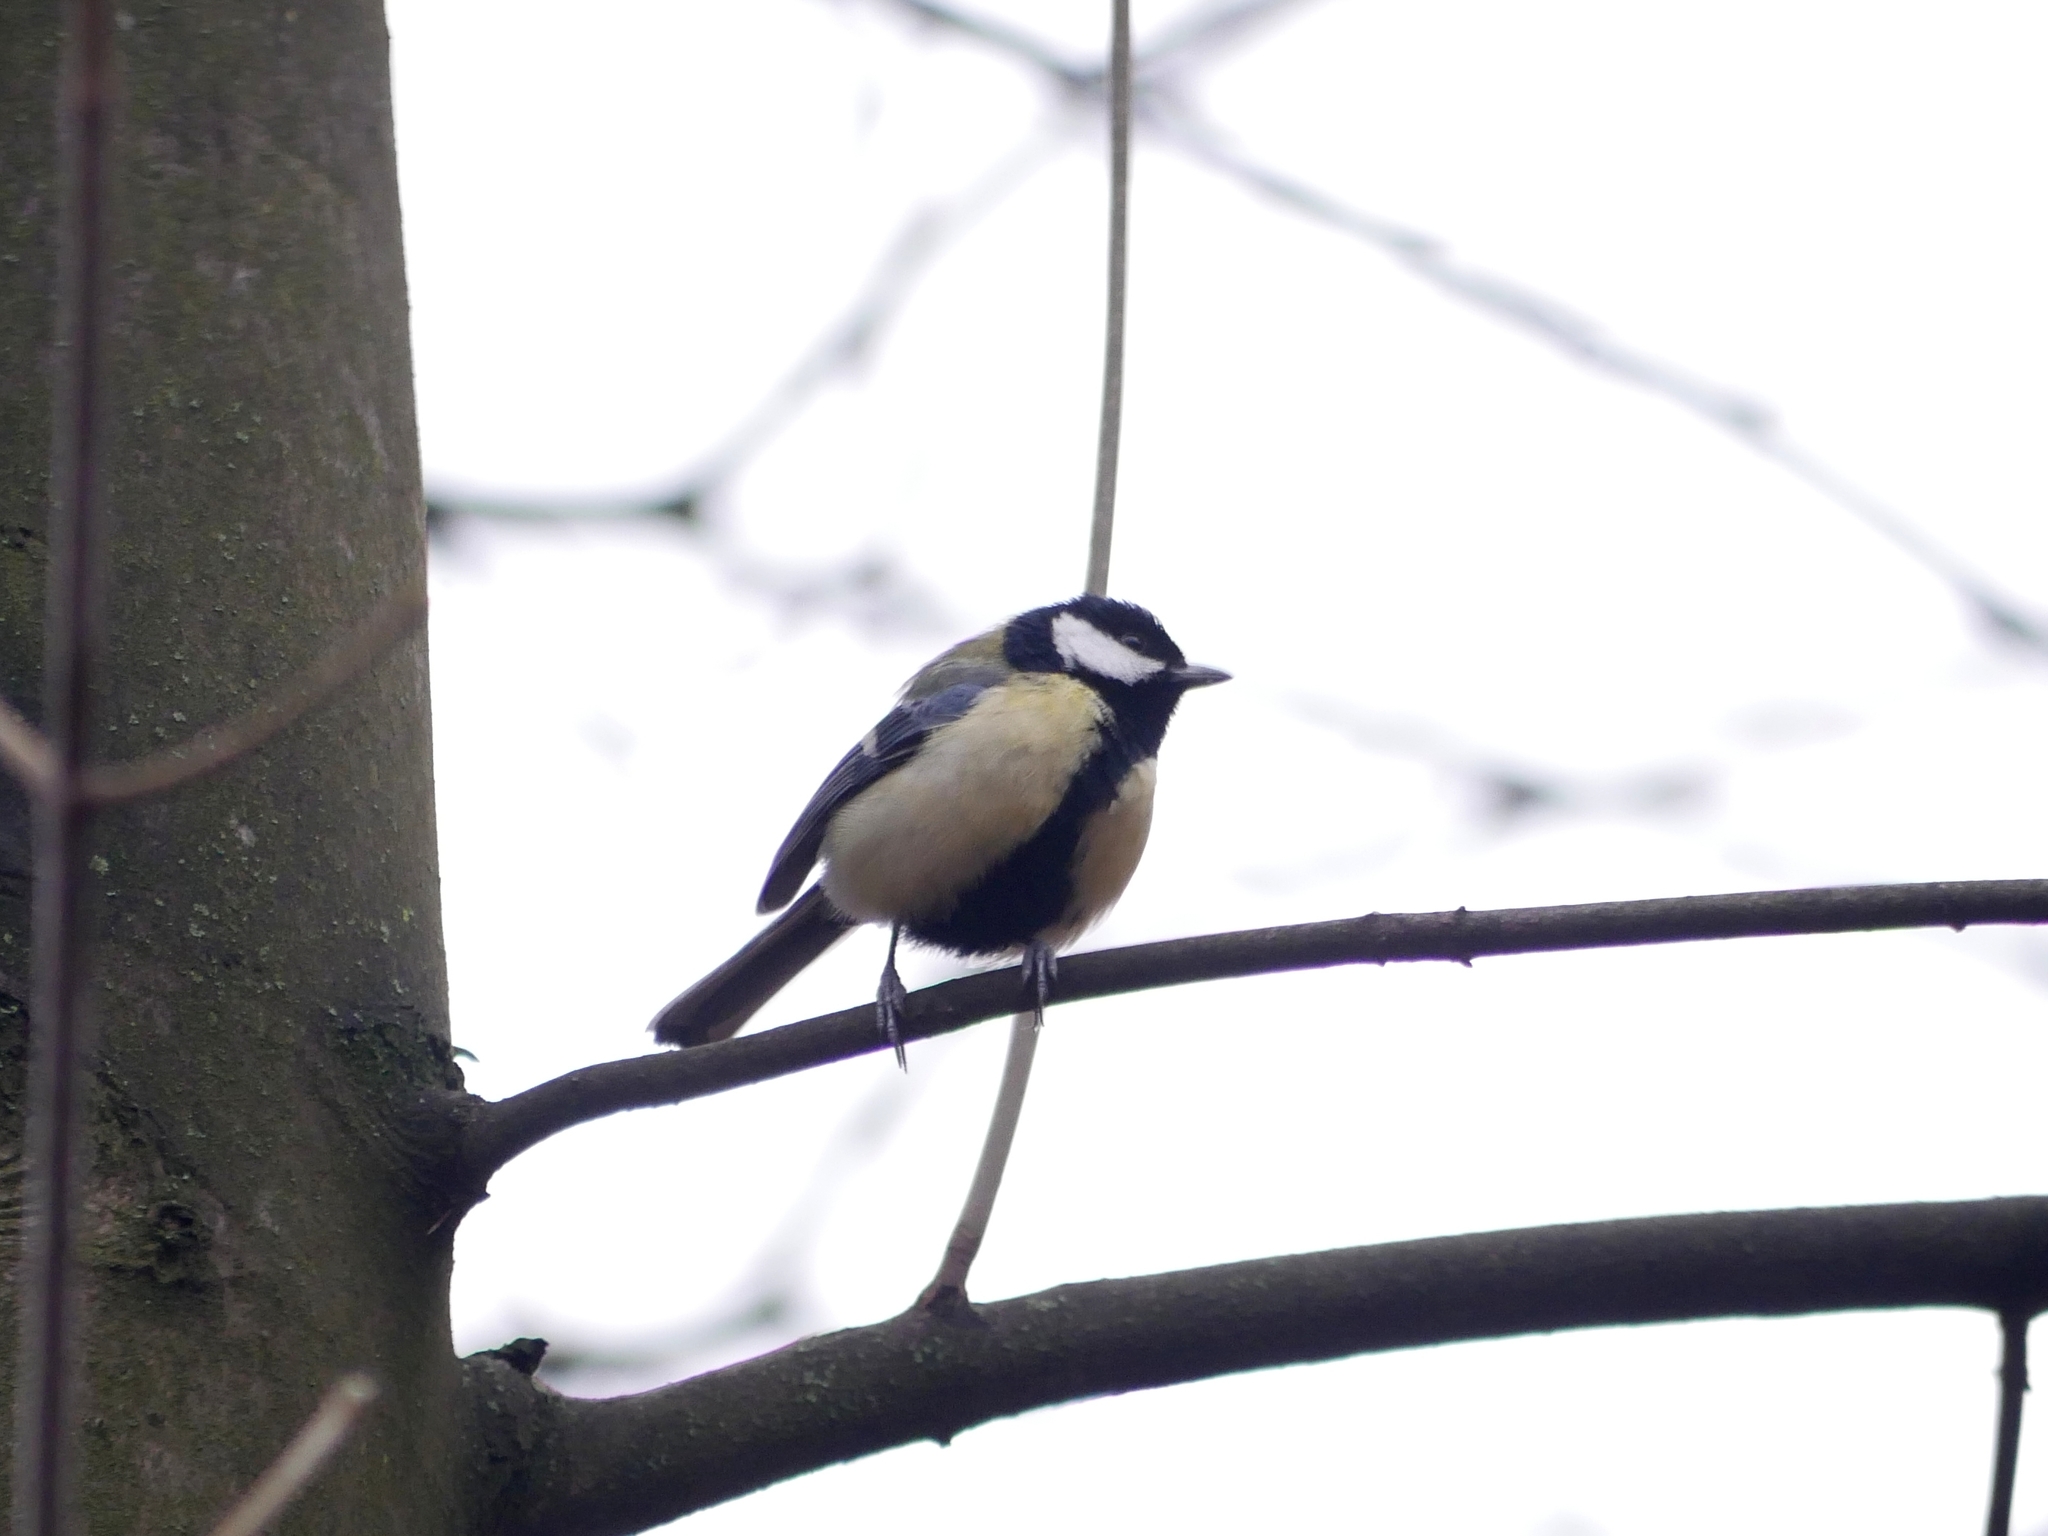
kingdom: Animalia
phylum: Chordata
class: Aves
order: Passeriformes
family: Paridae
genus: Parus
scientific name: Parus major
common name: Great tit
